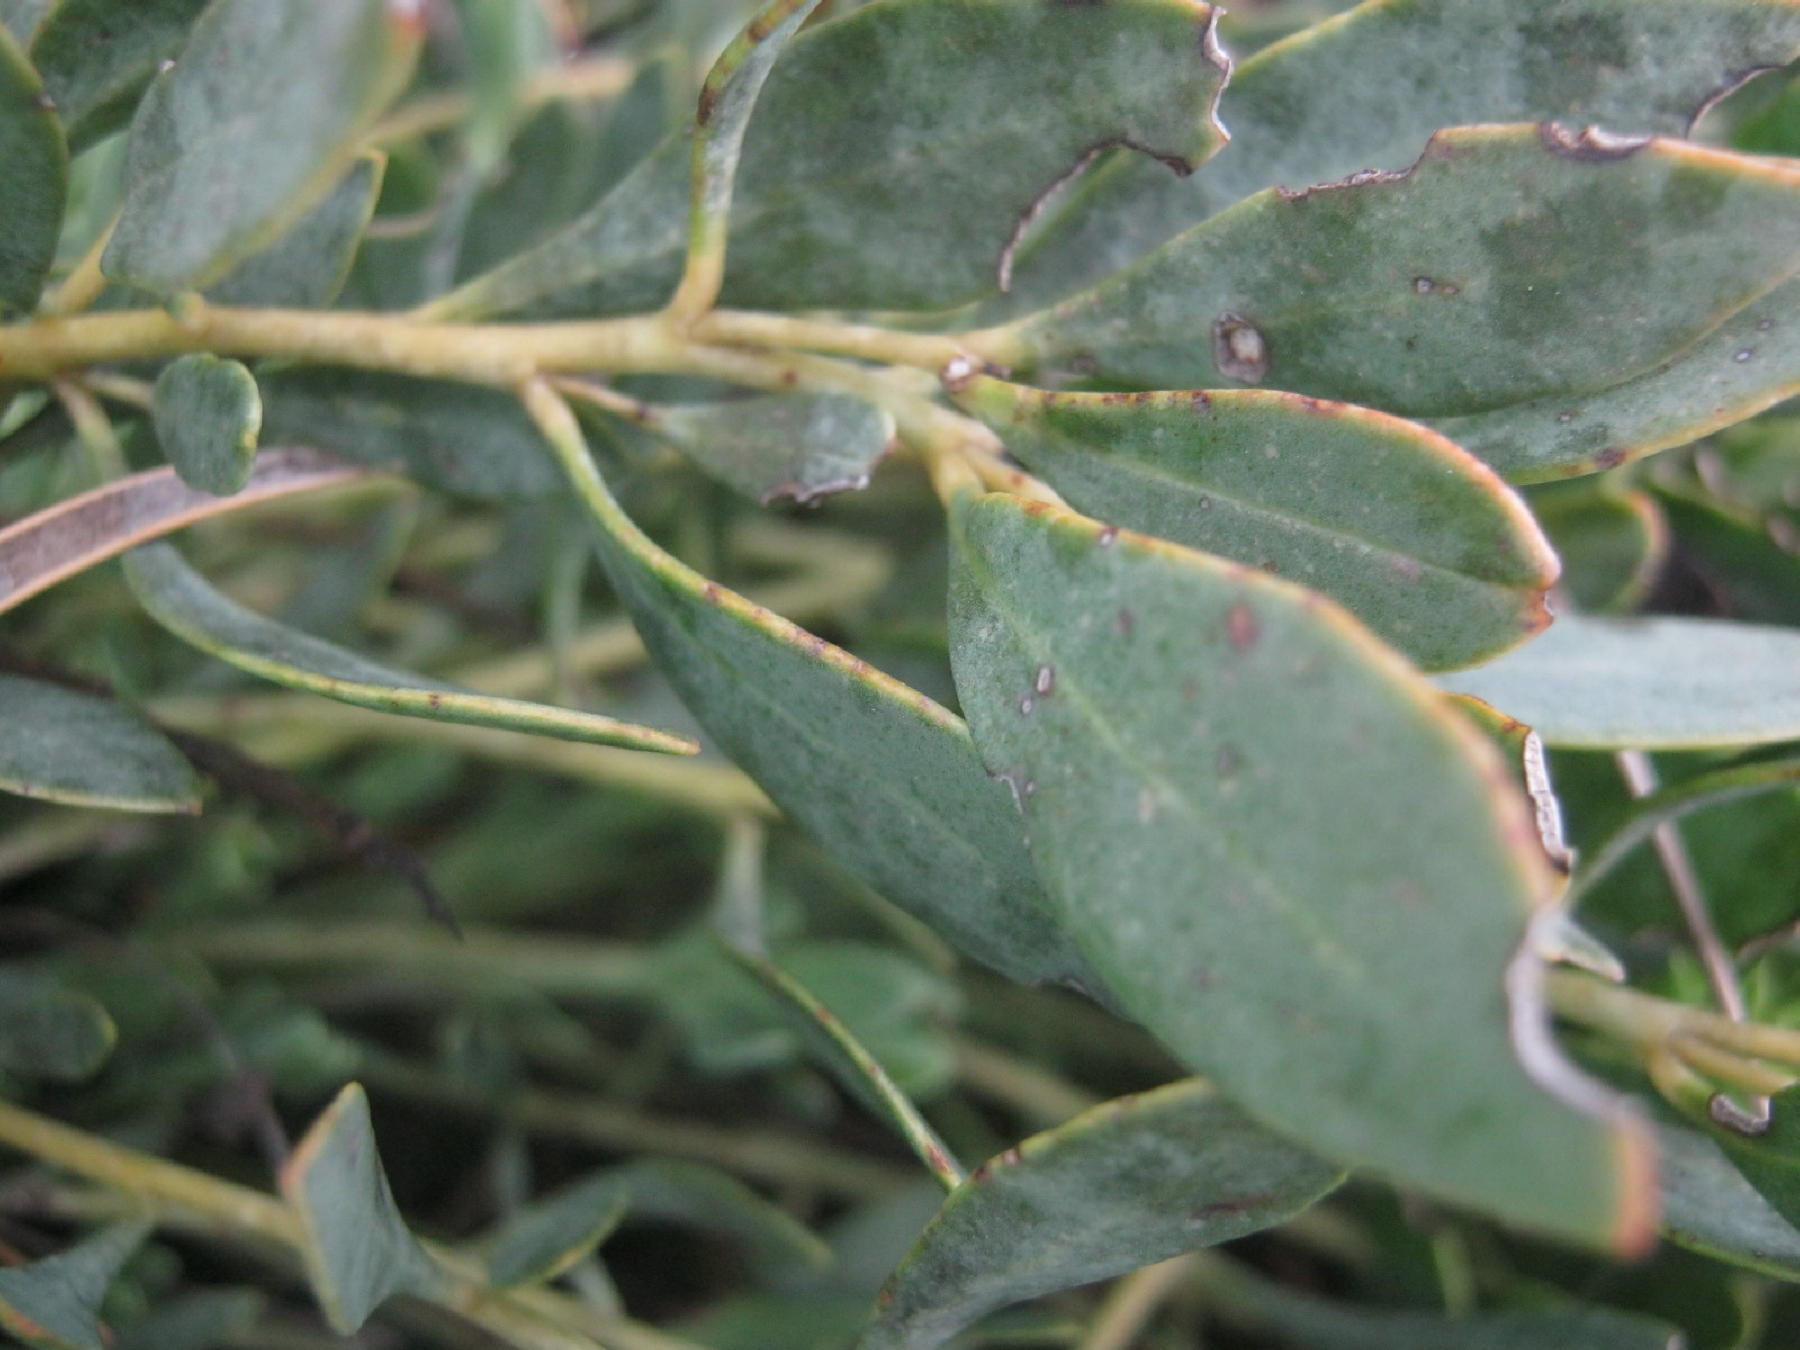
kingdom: Plantae
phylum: Tracheophyta
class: Magnoliopsida
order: Fabales
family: Fabaceae
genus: Rafnia
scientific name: Rafnia rostrata
